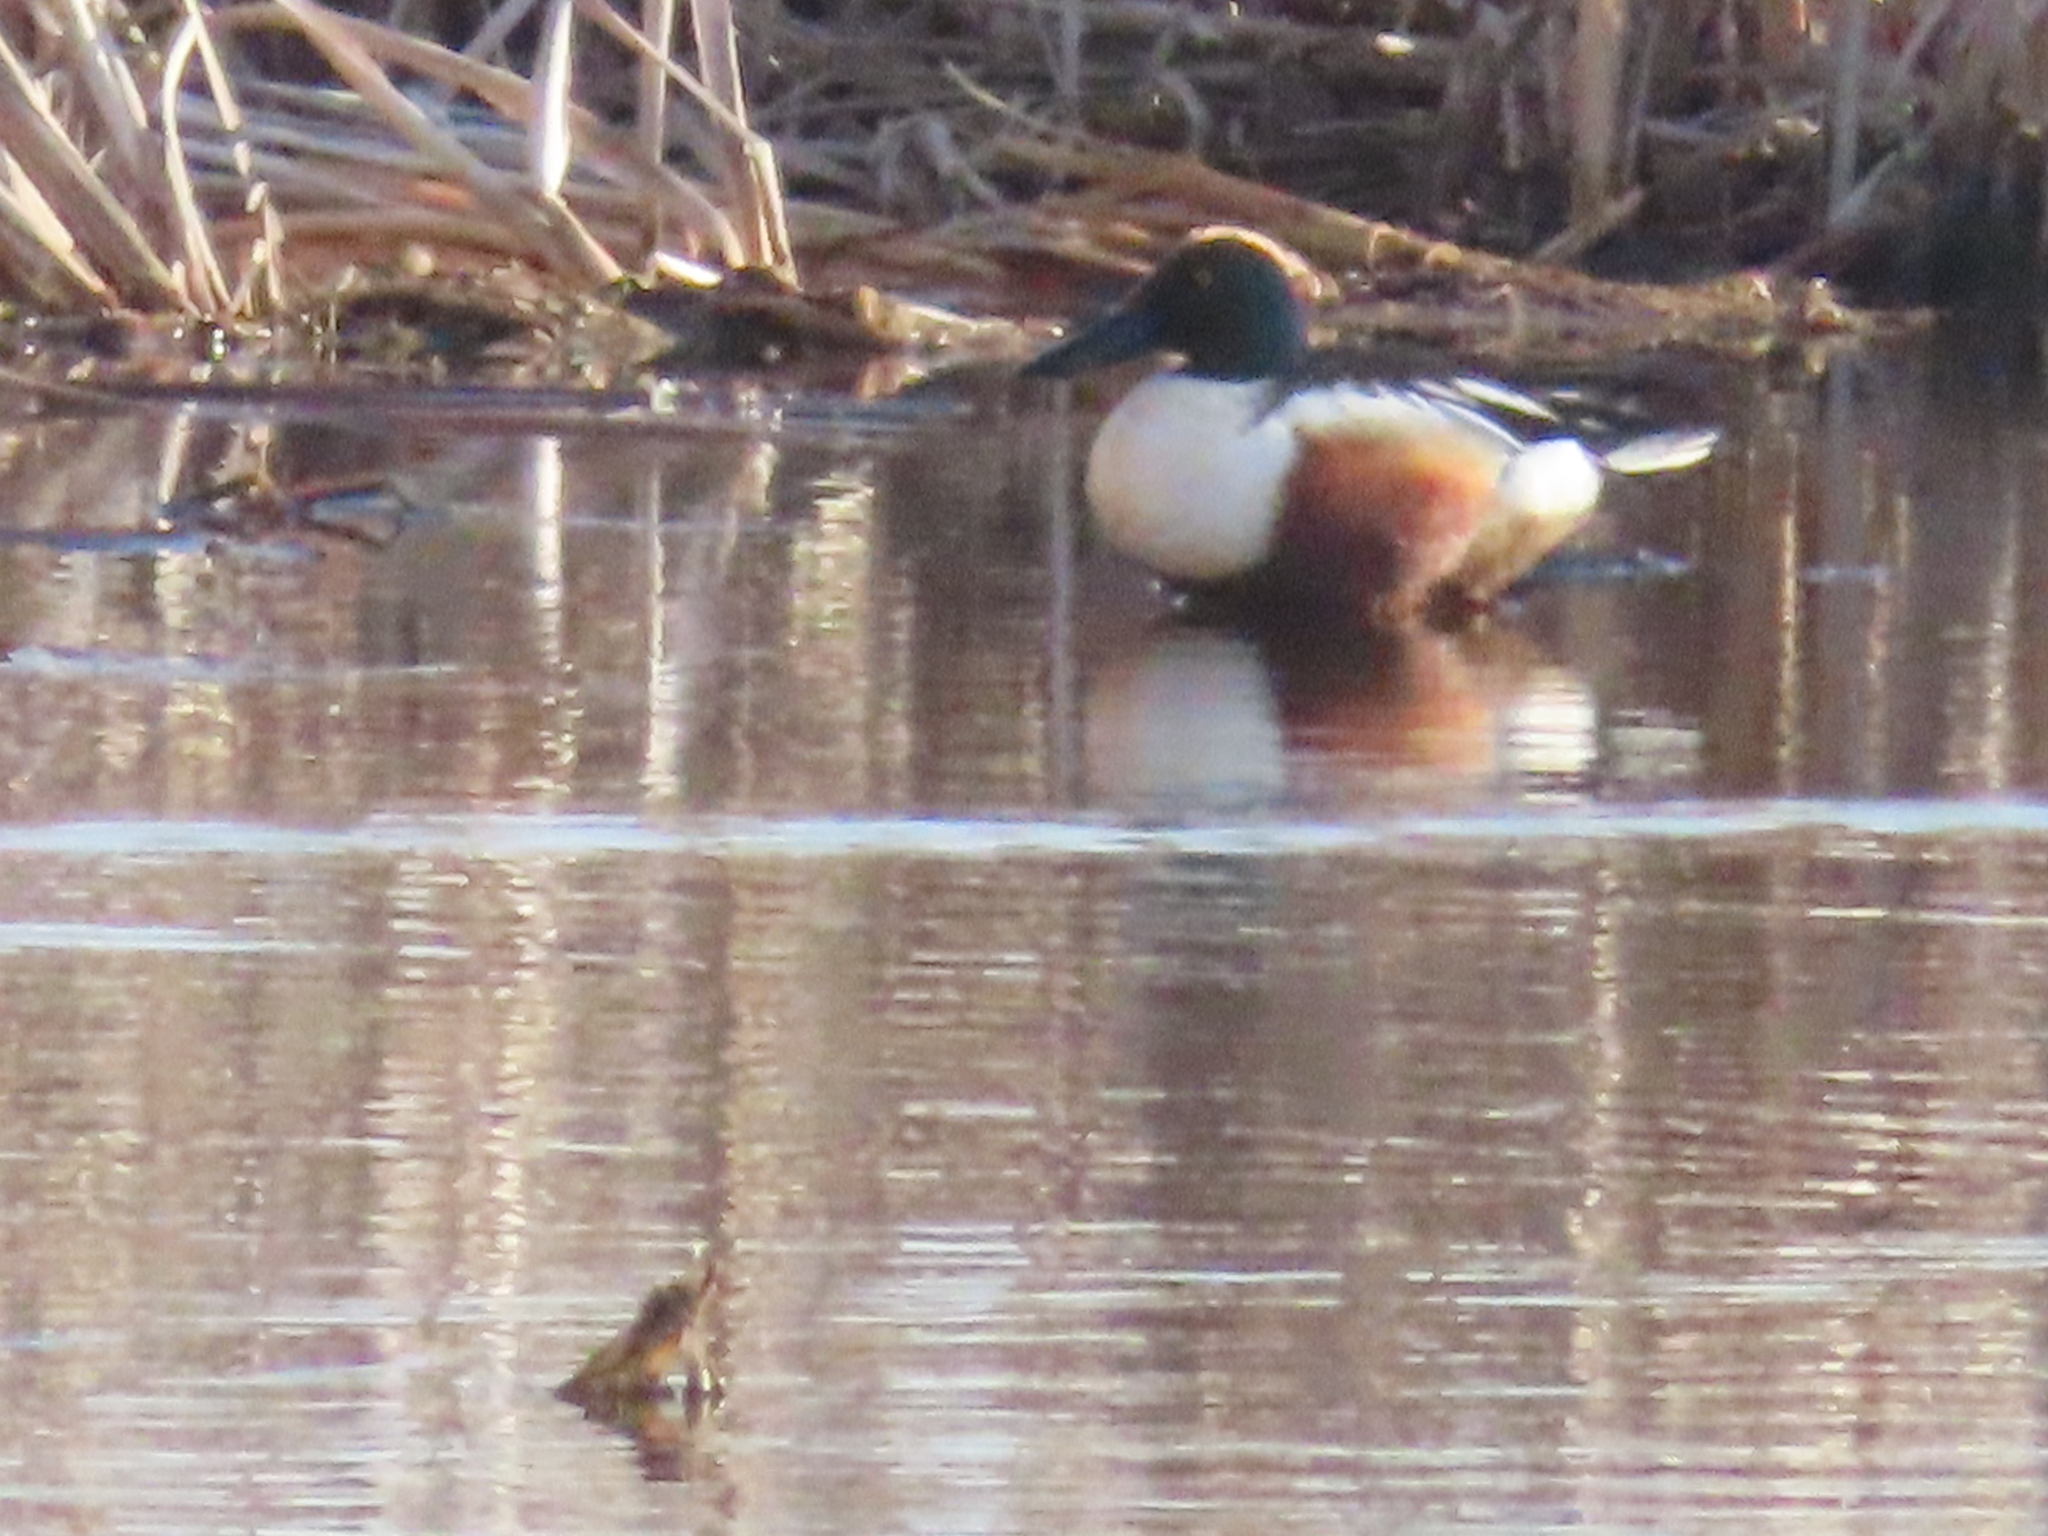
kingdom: Animalia
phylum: Chordata
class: Aves
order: Anseriformes
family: Anatidae
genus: Spatula
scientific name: Spatula clypeata
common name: Northern shoveler
